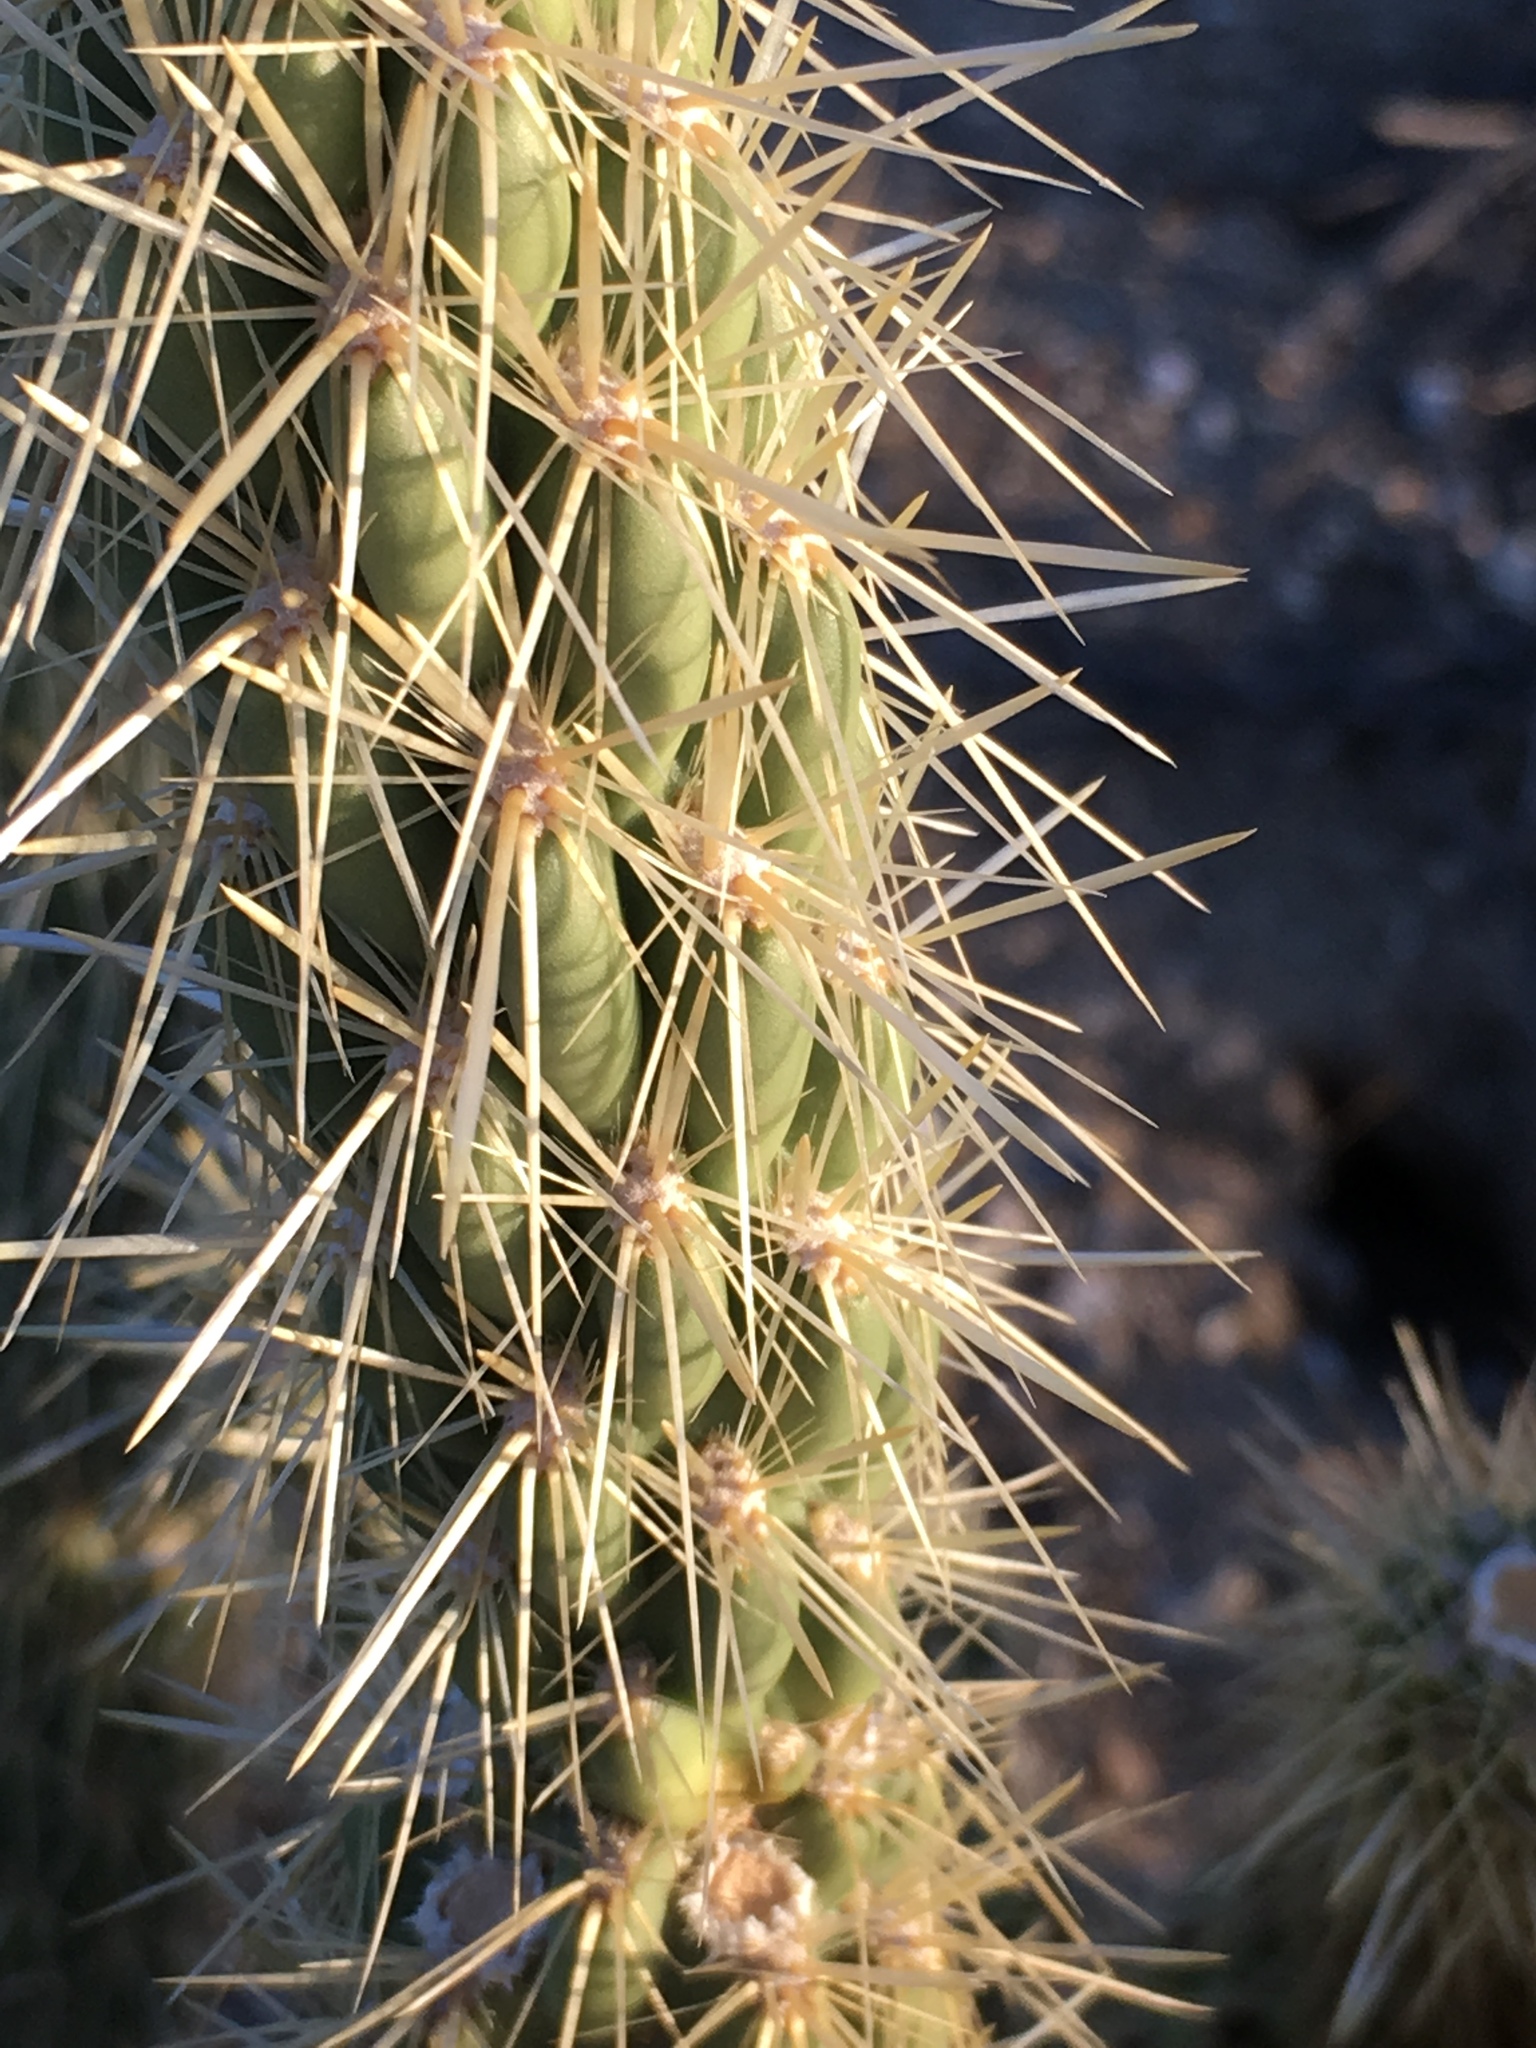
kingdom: Plantae
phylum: Tracheophyta
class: Magnoliopsida
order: Caryophyllales
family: Cactaceae
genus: Cylindropuntia
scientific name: Cylindropuntia ganderi
